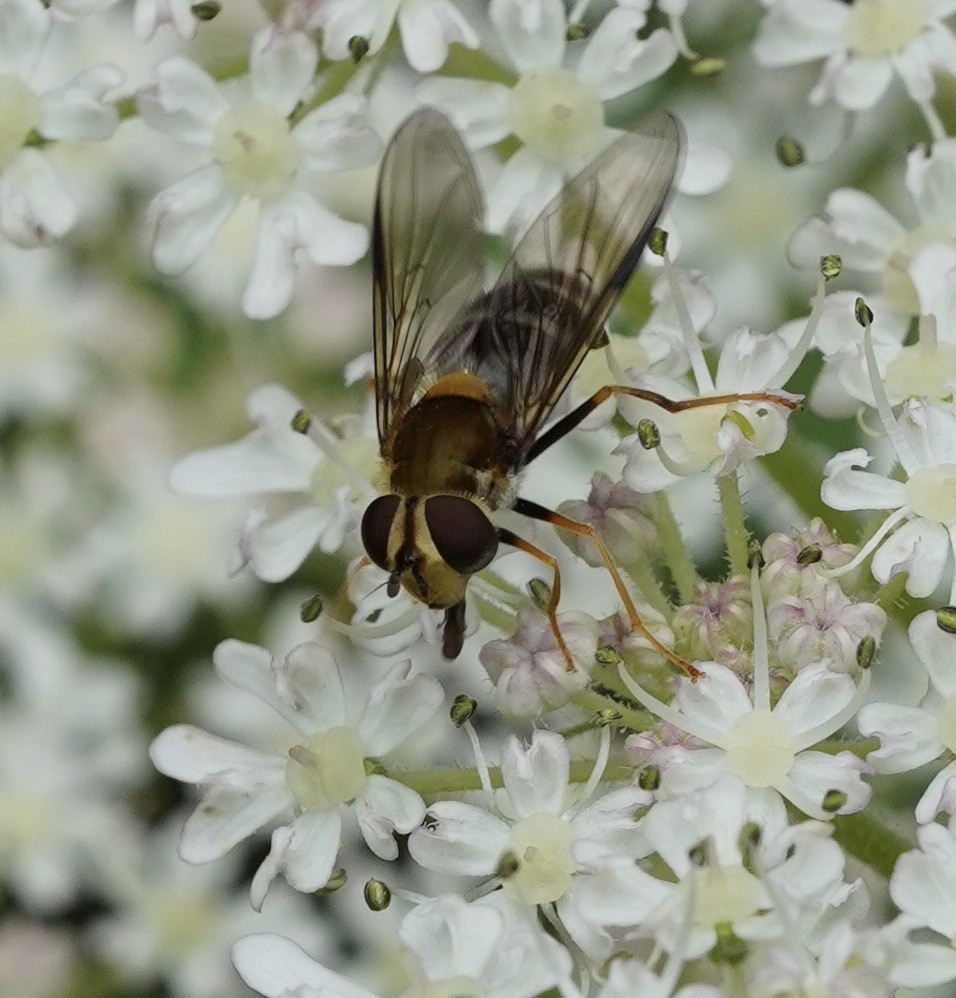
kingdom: Animalia
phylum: Arthropoda
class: Insecta
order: Diptera
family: Syrphidae
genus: Leucozona
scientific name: Leucozona glaucia
